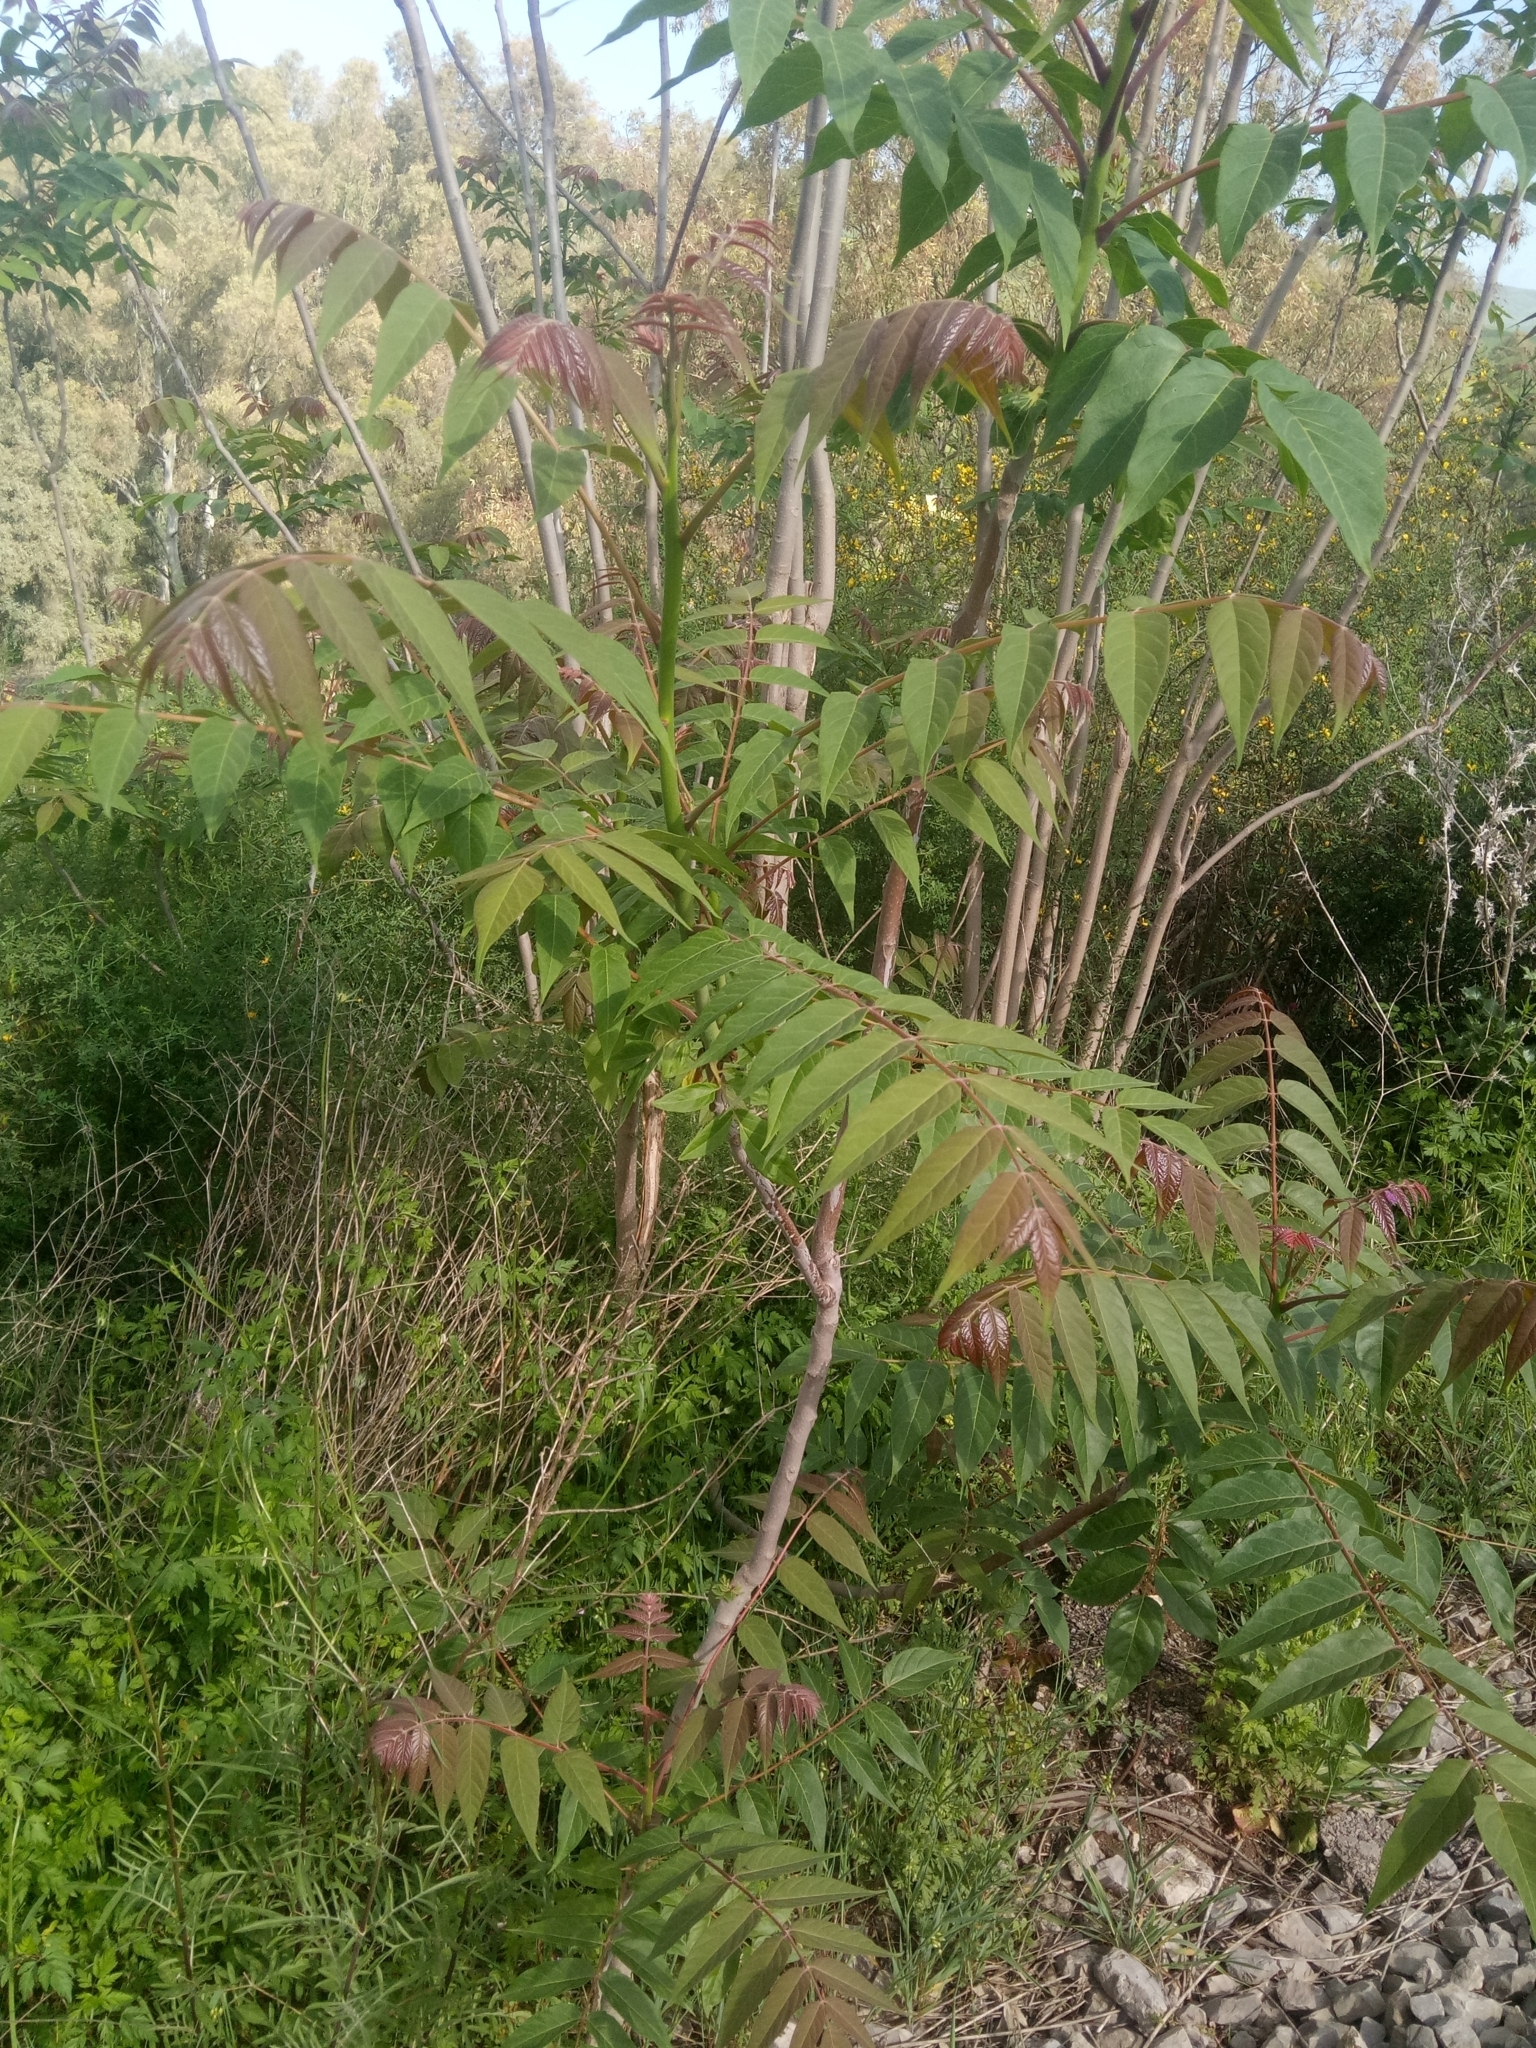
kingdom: Plantae
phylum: Tracheophyta
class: Magnoliopsida
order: Sapindales
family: Simaroubaceae
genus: Ailanthus
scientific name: Ailanthus altissima
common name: Tree-of-heaven
